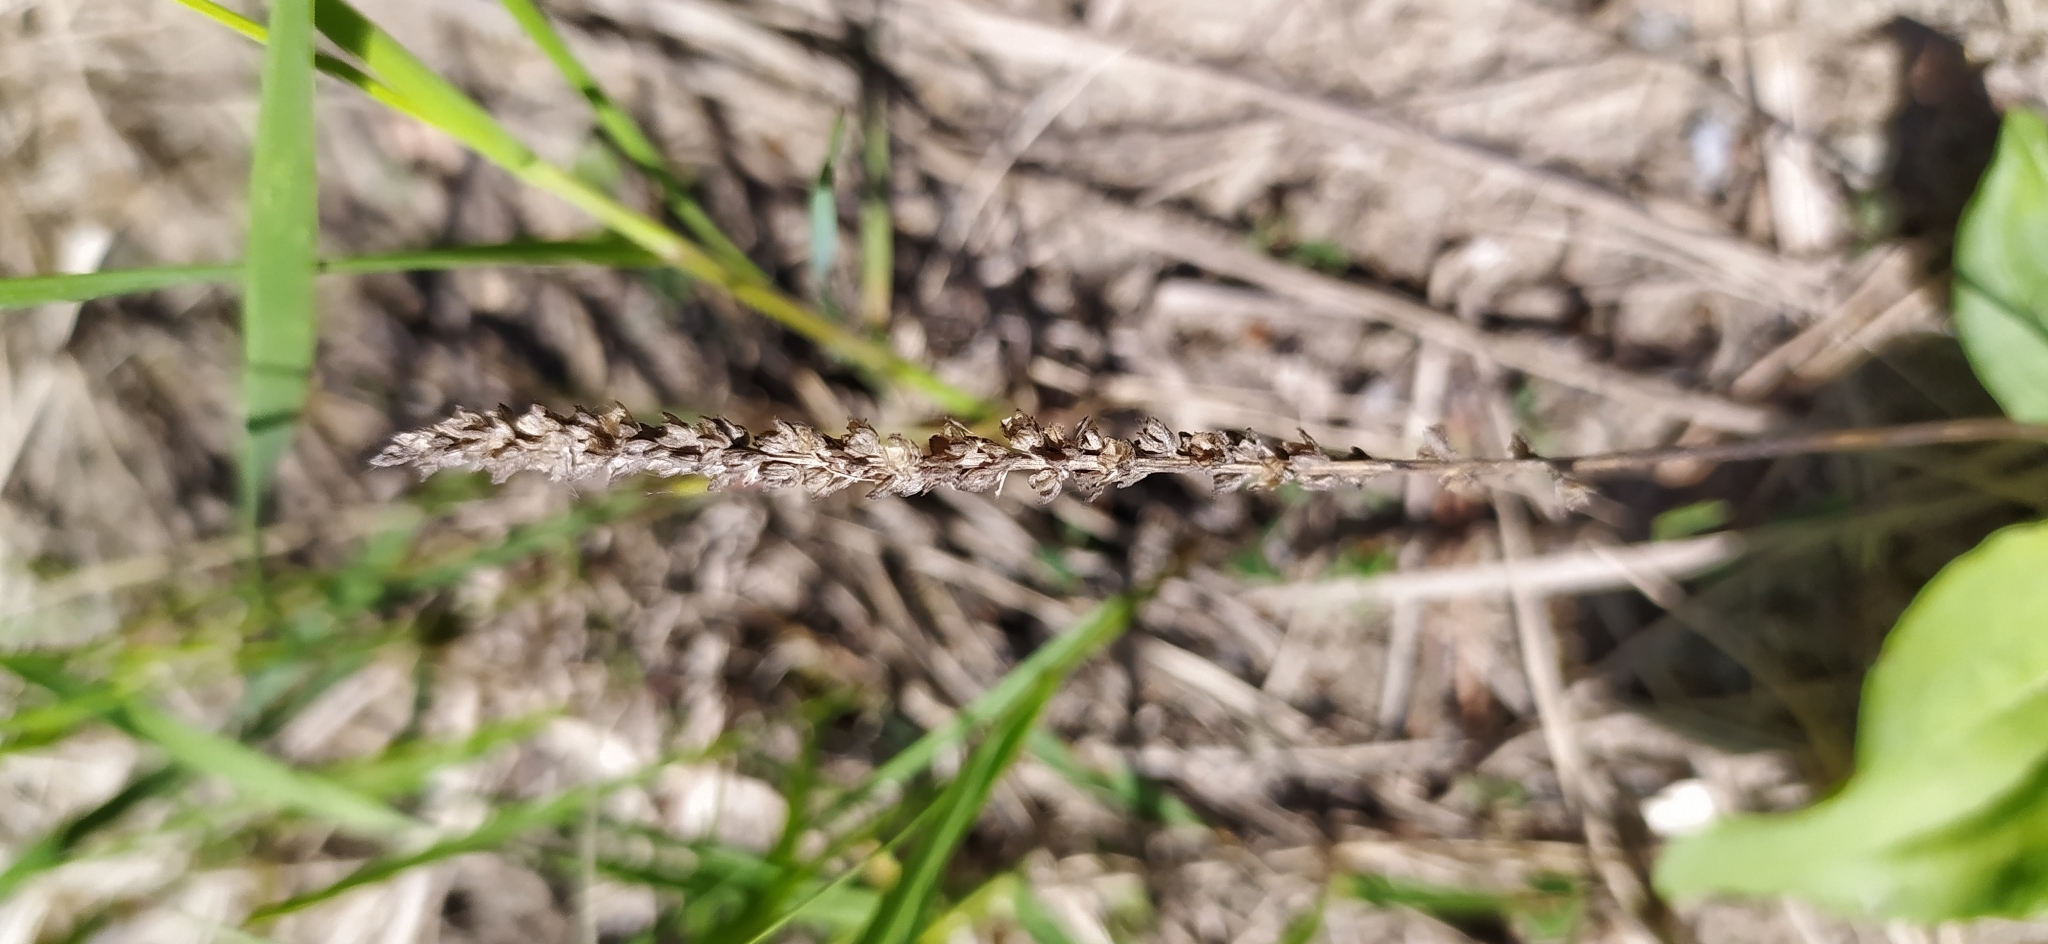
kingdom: Plantae
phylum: Tracheophyta
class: Magnoliopsida
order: Lamiales
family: Plantaginaceae
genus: Plantago
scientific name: Plantago major
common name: Common plantain
